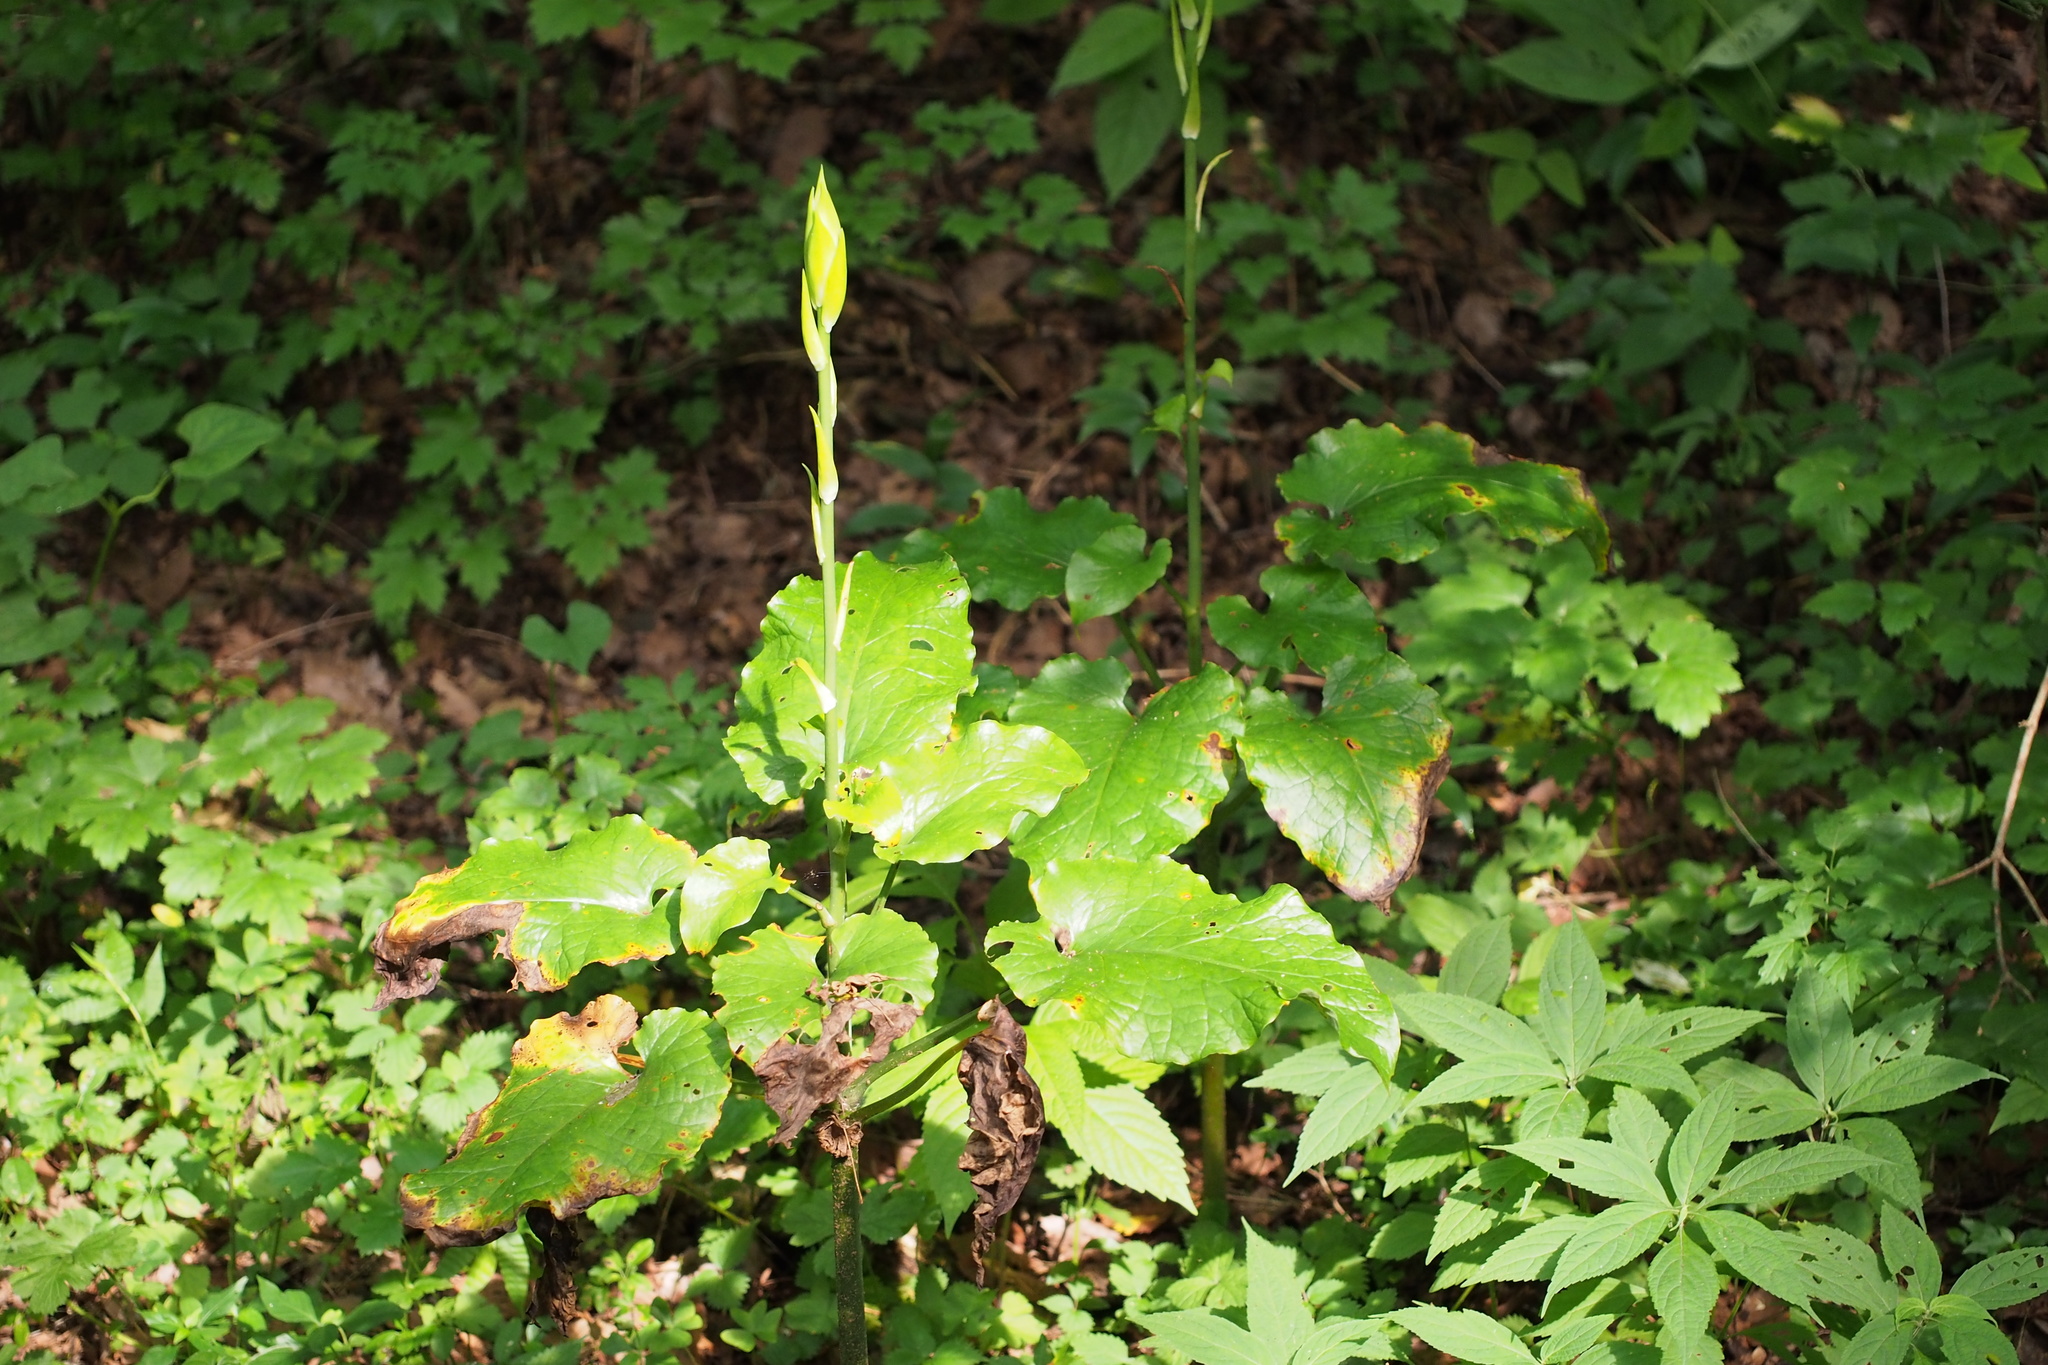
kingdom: Plantae
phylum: Tracheophyta
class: Liliopsida
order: Liliales
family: Liliaceae
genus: Cardiocrinum
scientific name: Cardiocrinum cordatum
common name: Lily
